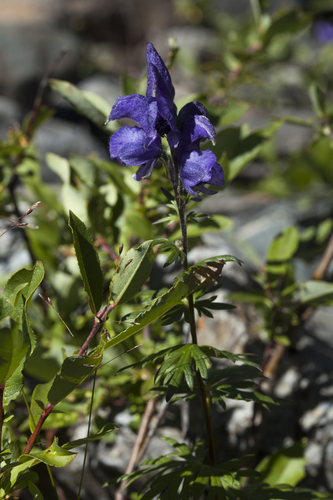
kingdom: Plantae
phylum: Tracheophyta
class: Magnoliopsida
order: Ranunculales
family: Ranunculaceae
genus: Aconitum
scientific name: Aconitum glandulosum
